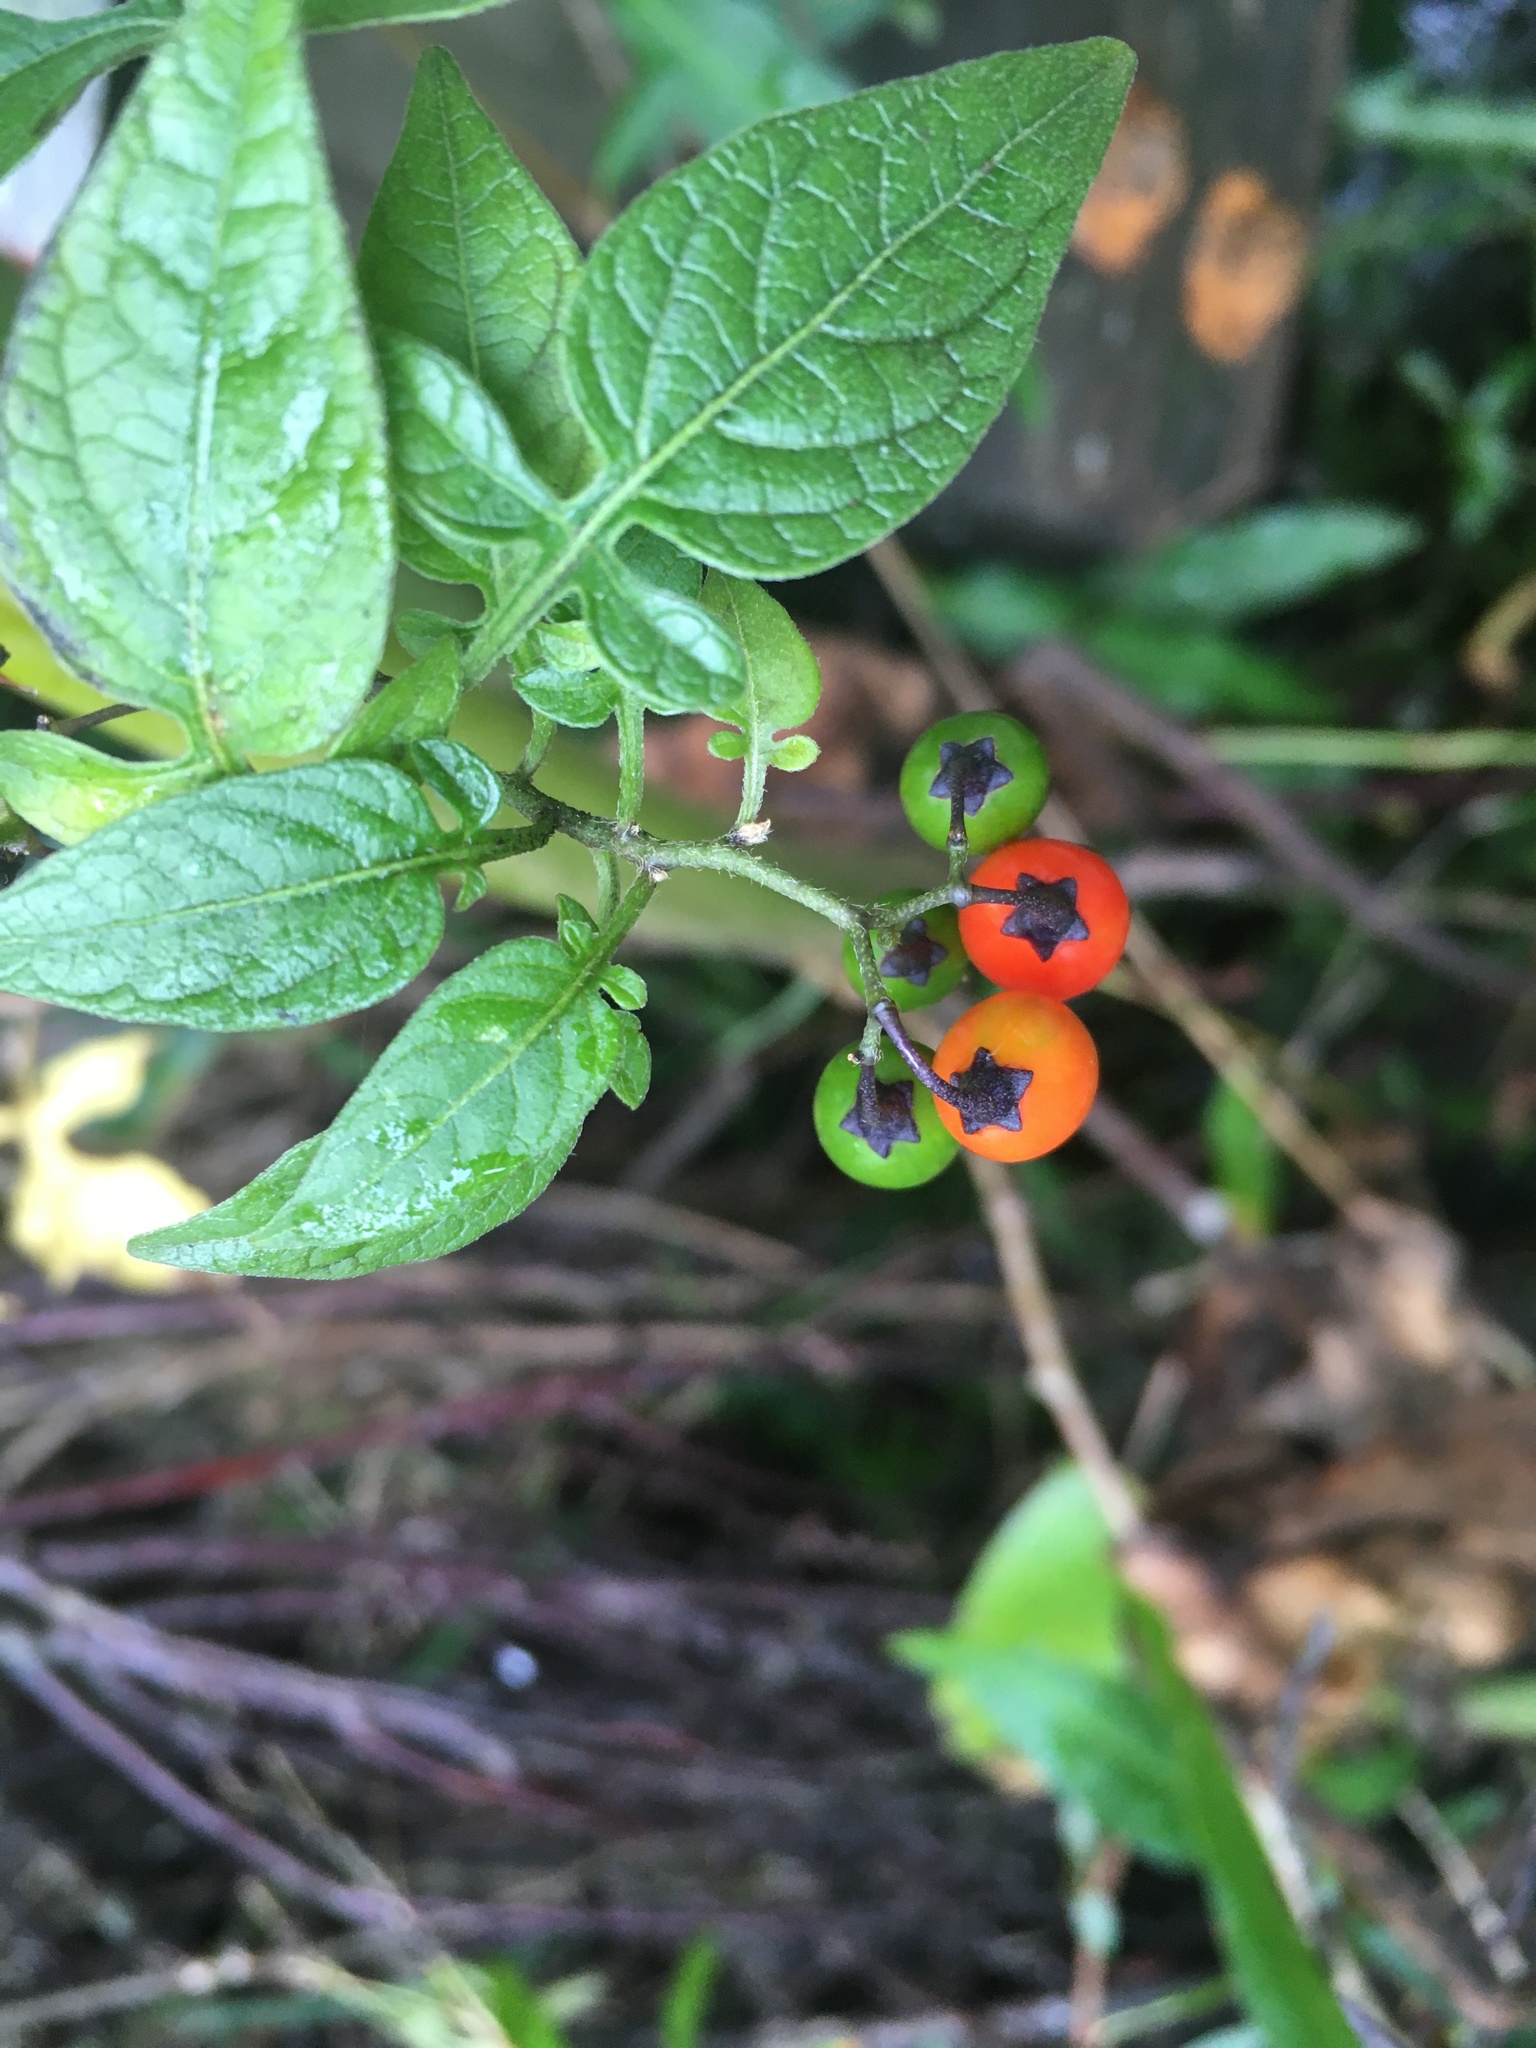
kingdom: Plantae
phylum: Tracheophyta
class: Magnoliopsida
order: Solanales
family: Solanaceae
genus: Solanum
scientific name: Solanum dulcamara
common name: Climbing nightshade
